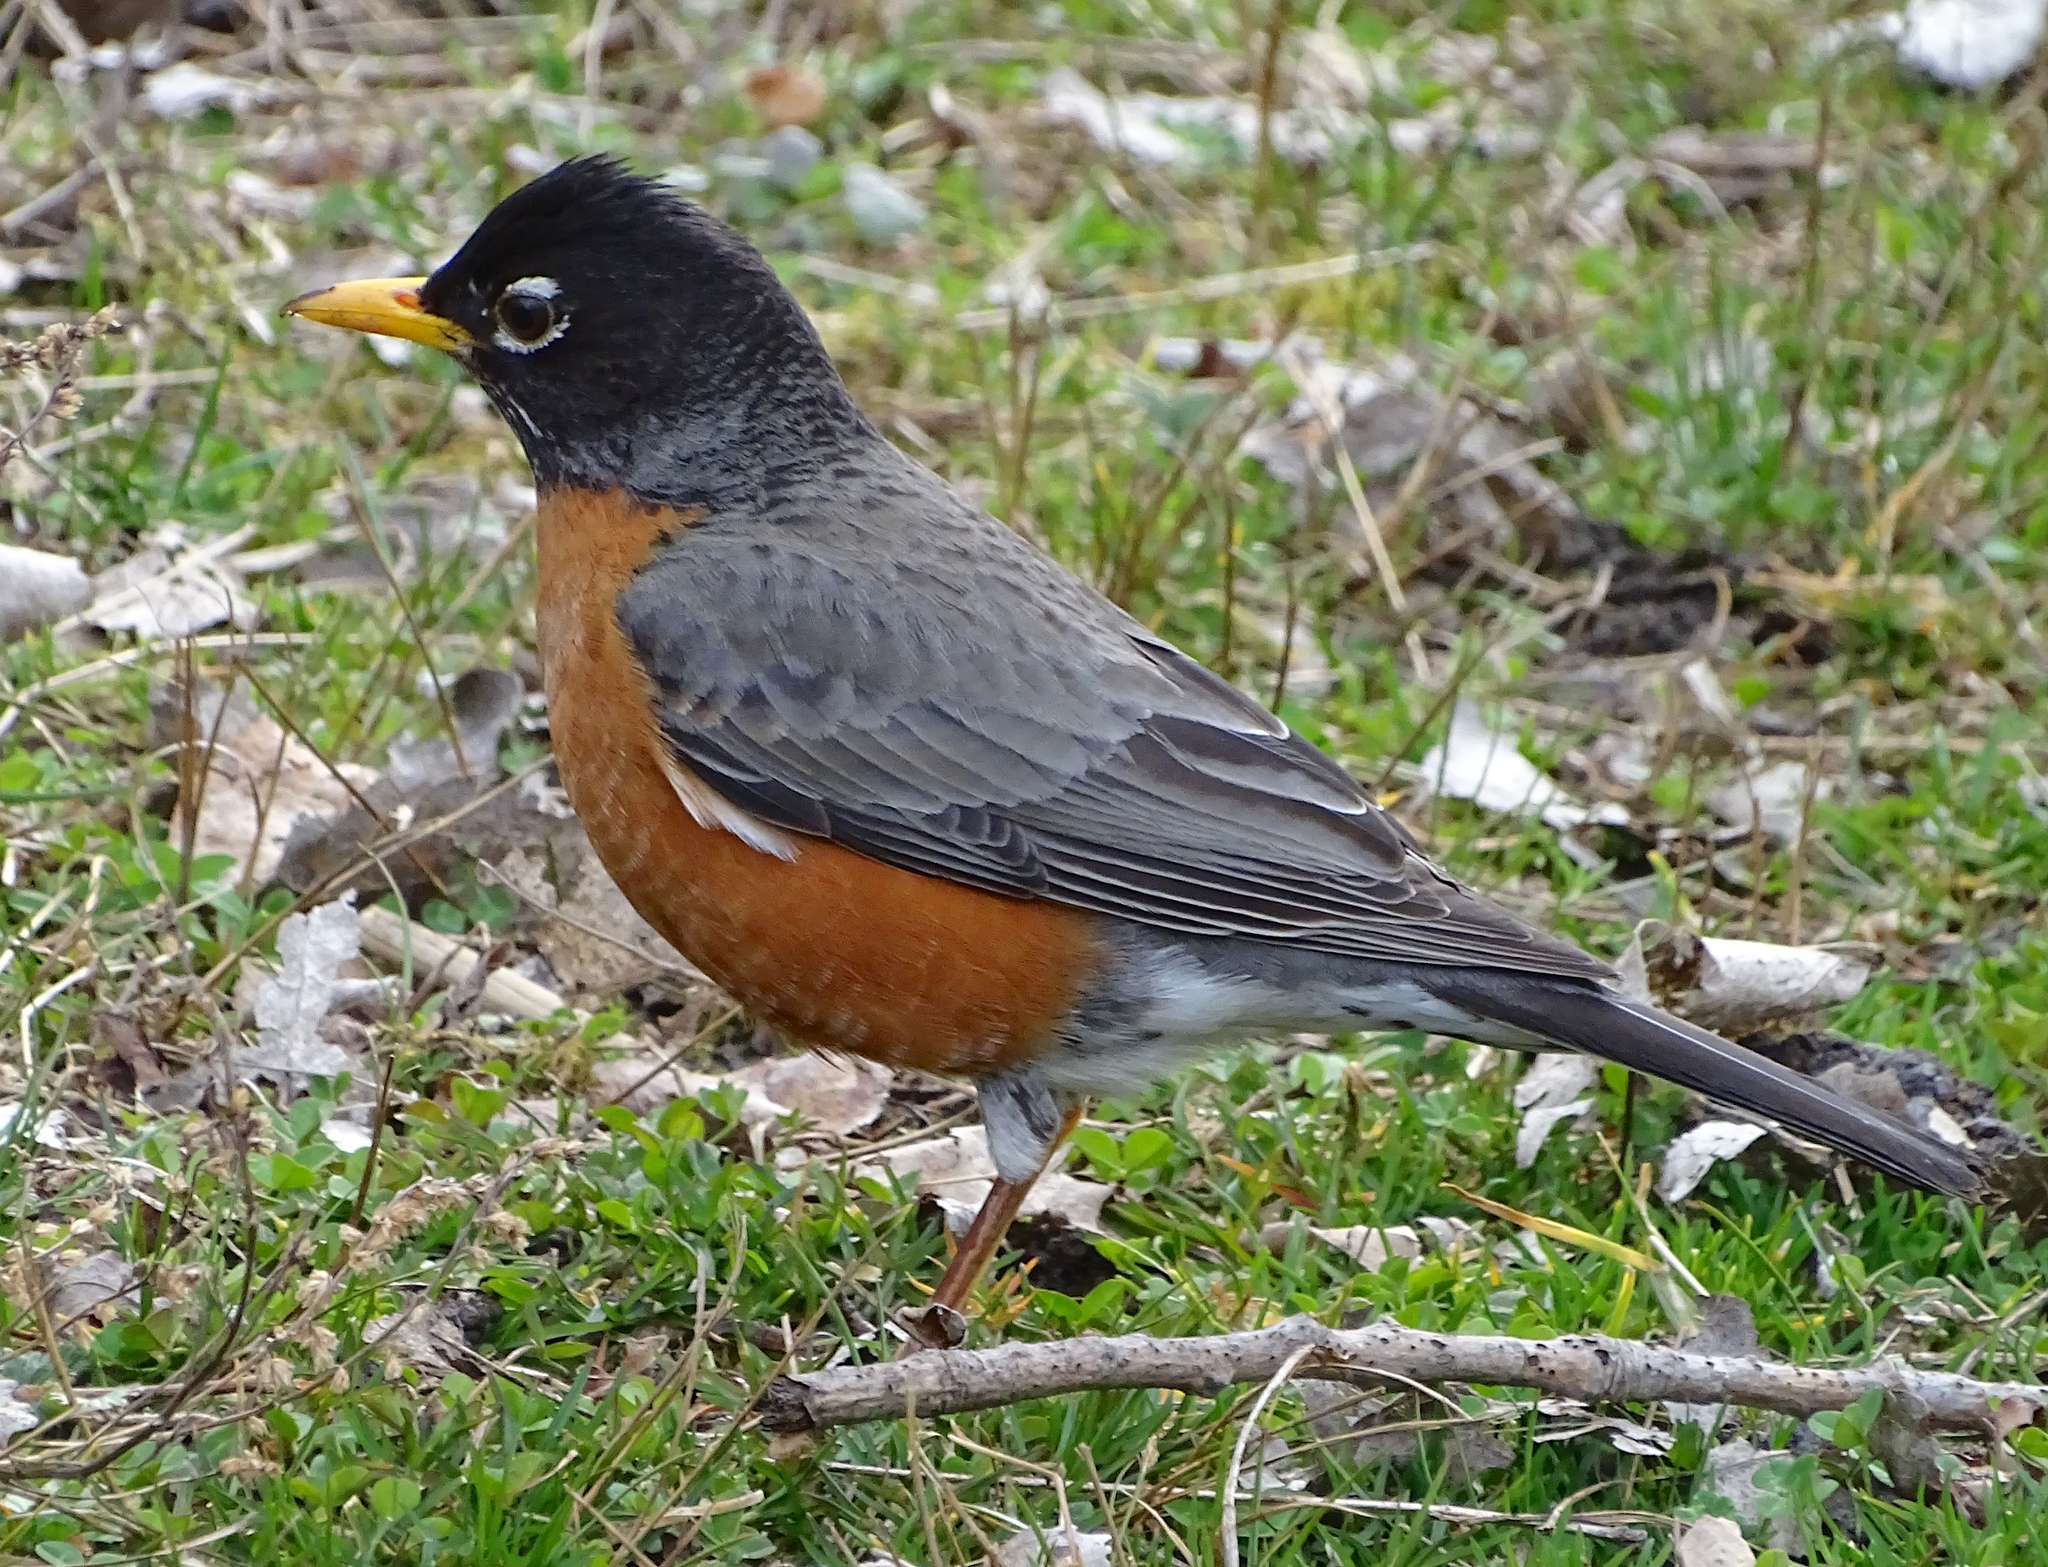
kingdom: Animalia
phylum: Chordata
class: Aves
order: Passeriformes
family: Turdidae
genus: Turdus
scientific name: Turdus migratorius
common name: American robin
